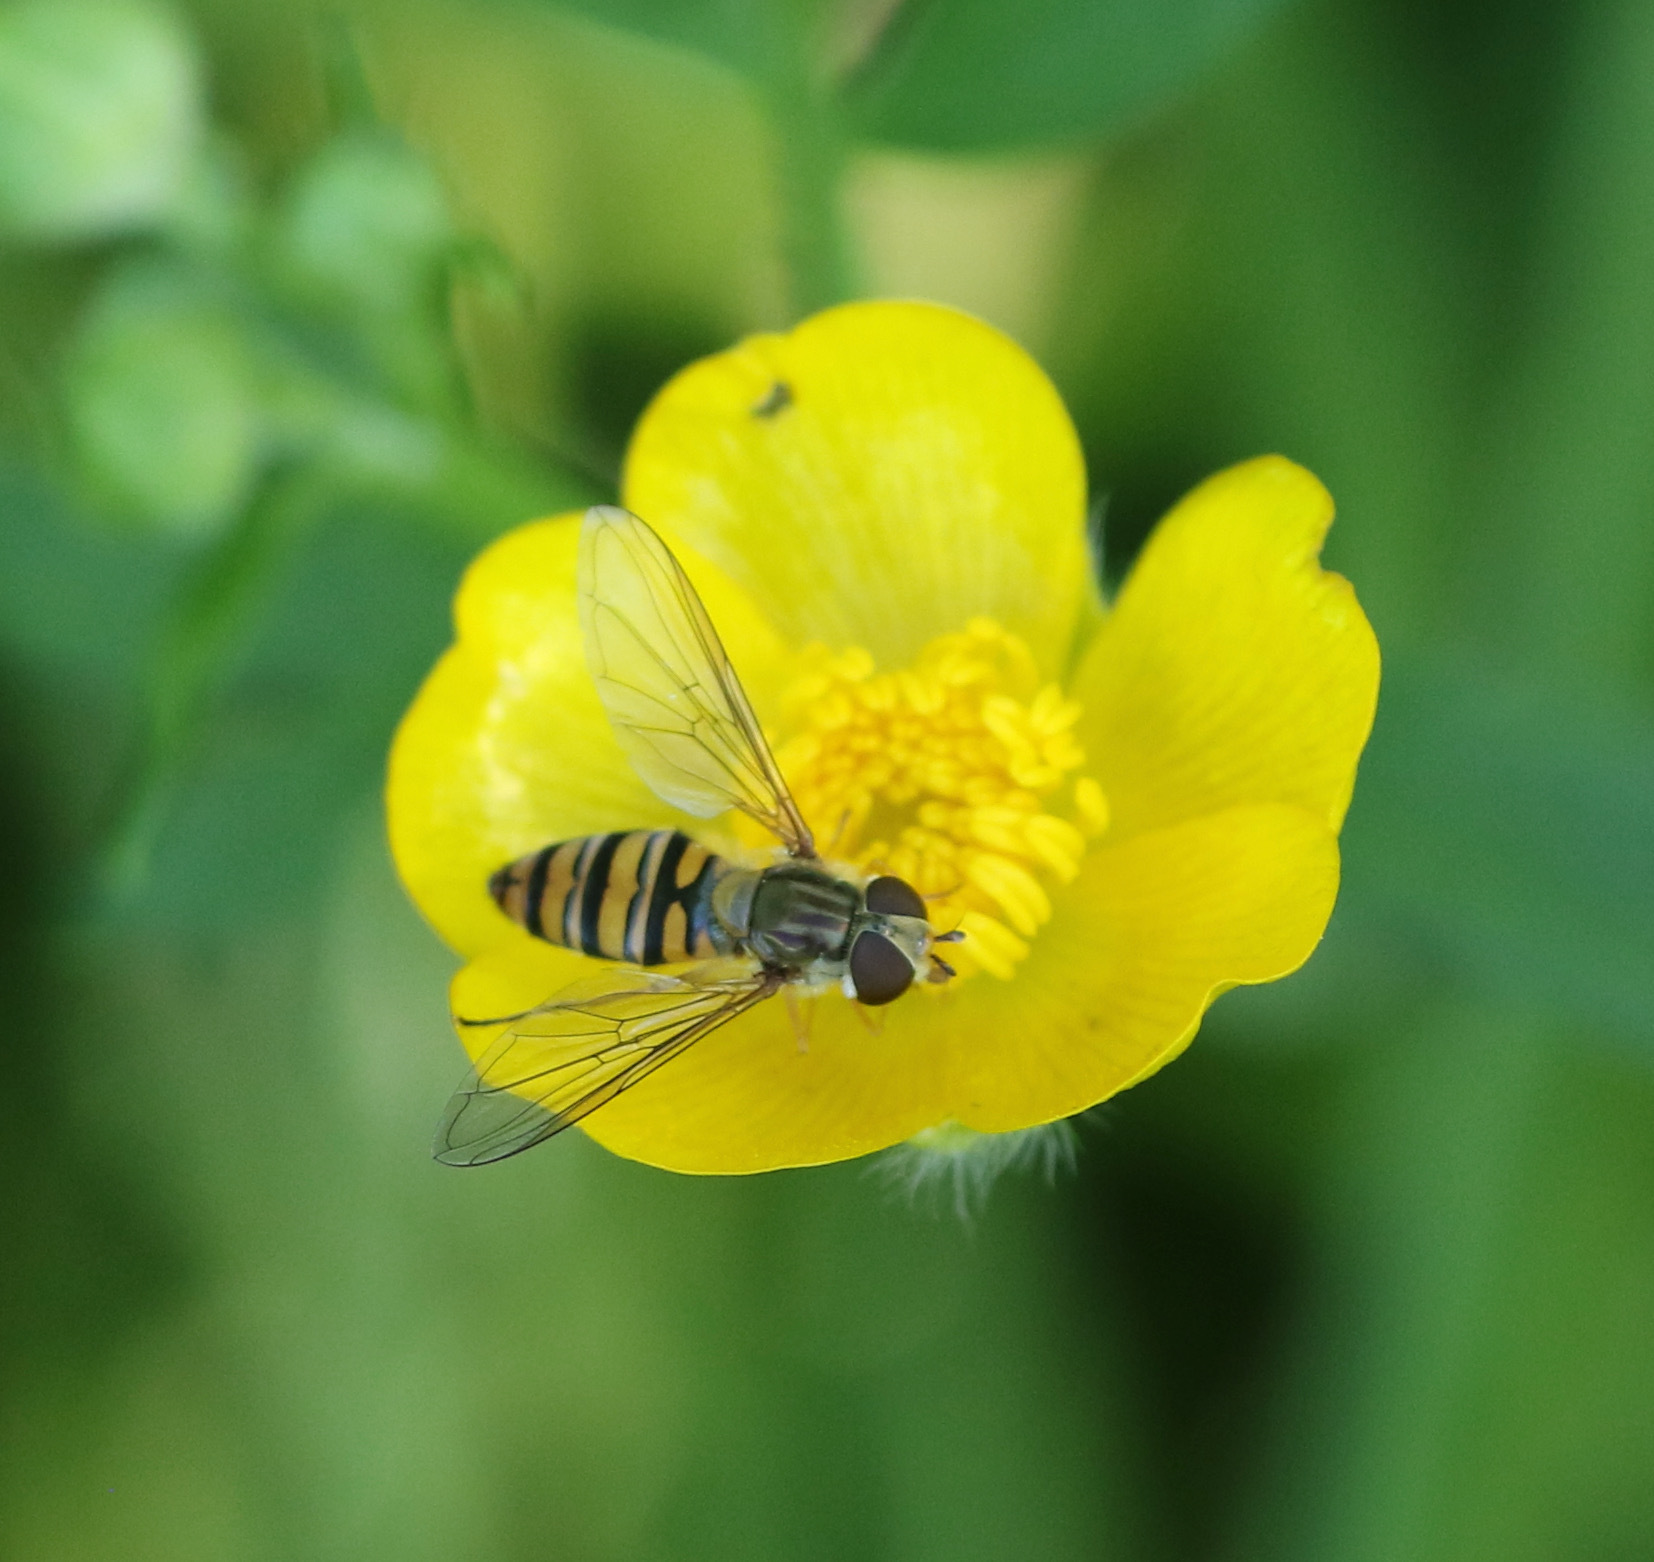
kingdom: Animalia
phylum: Arthropoda
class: Insecta
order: Diptera
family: Syrphidae
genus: Episyrphus
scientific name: Episyrphus balteatus
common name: Marmalade hoverfly
